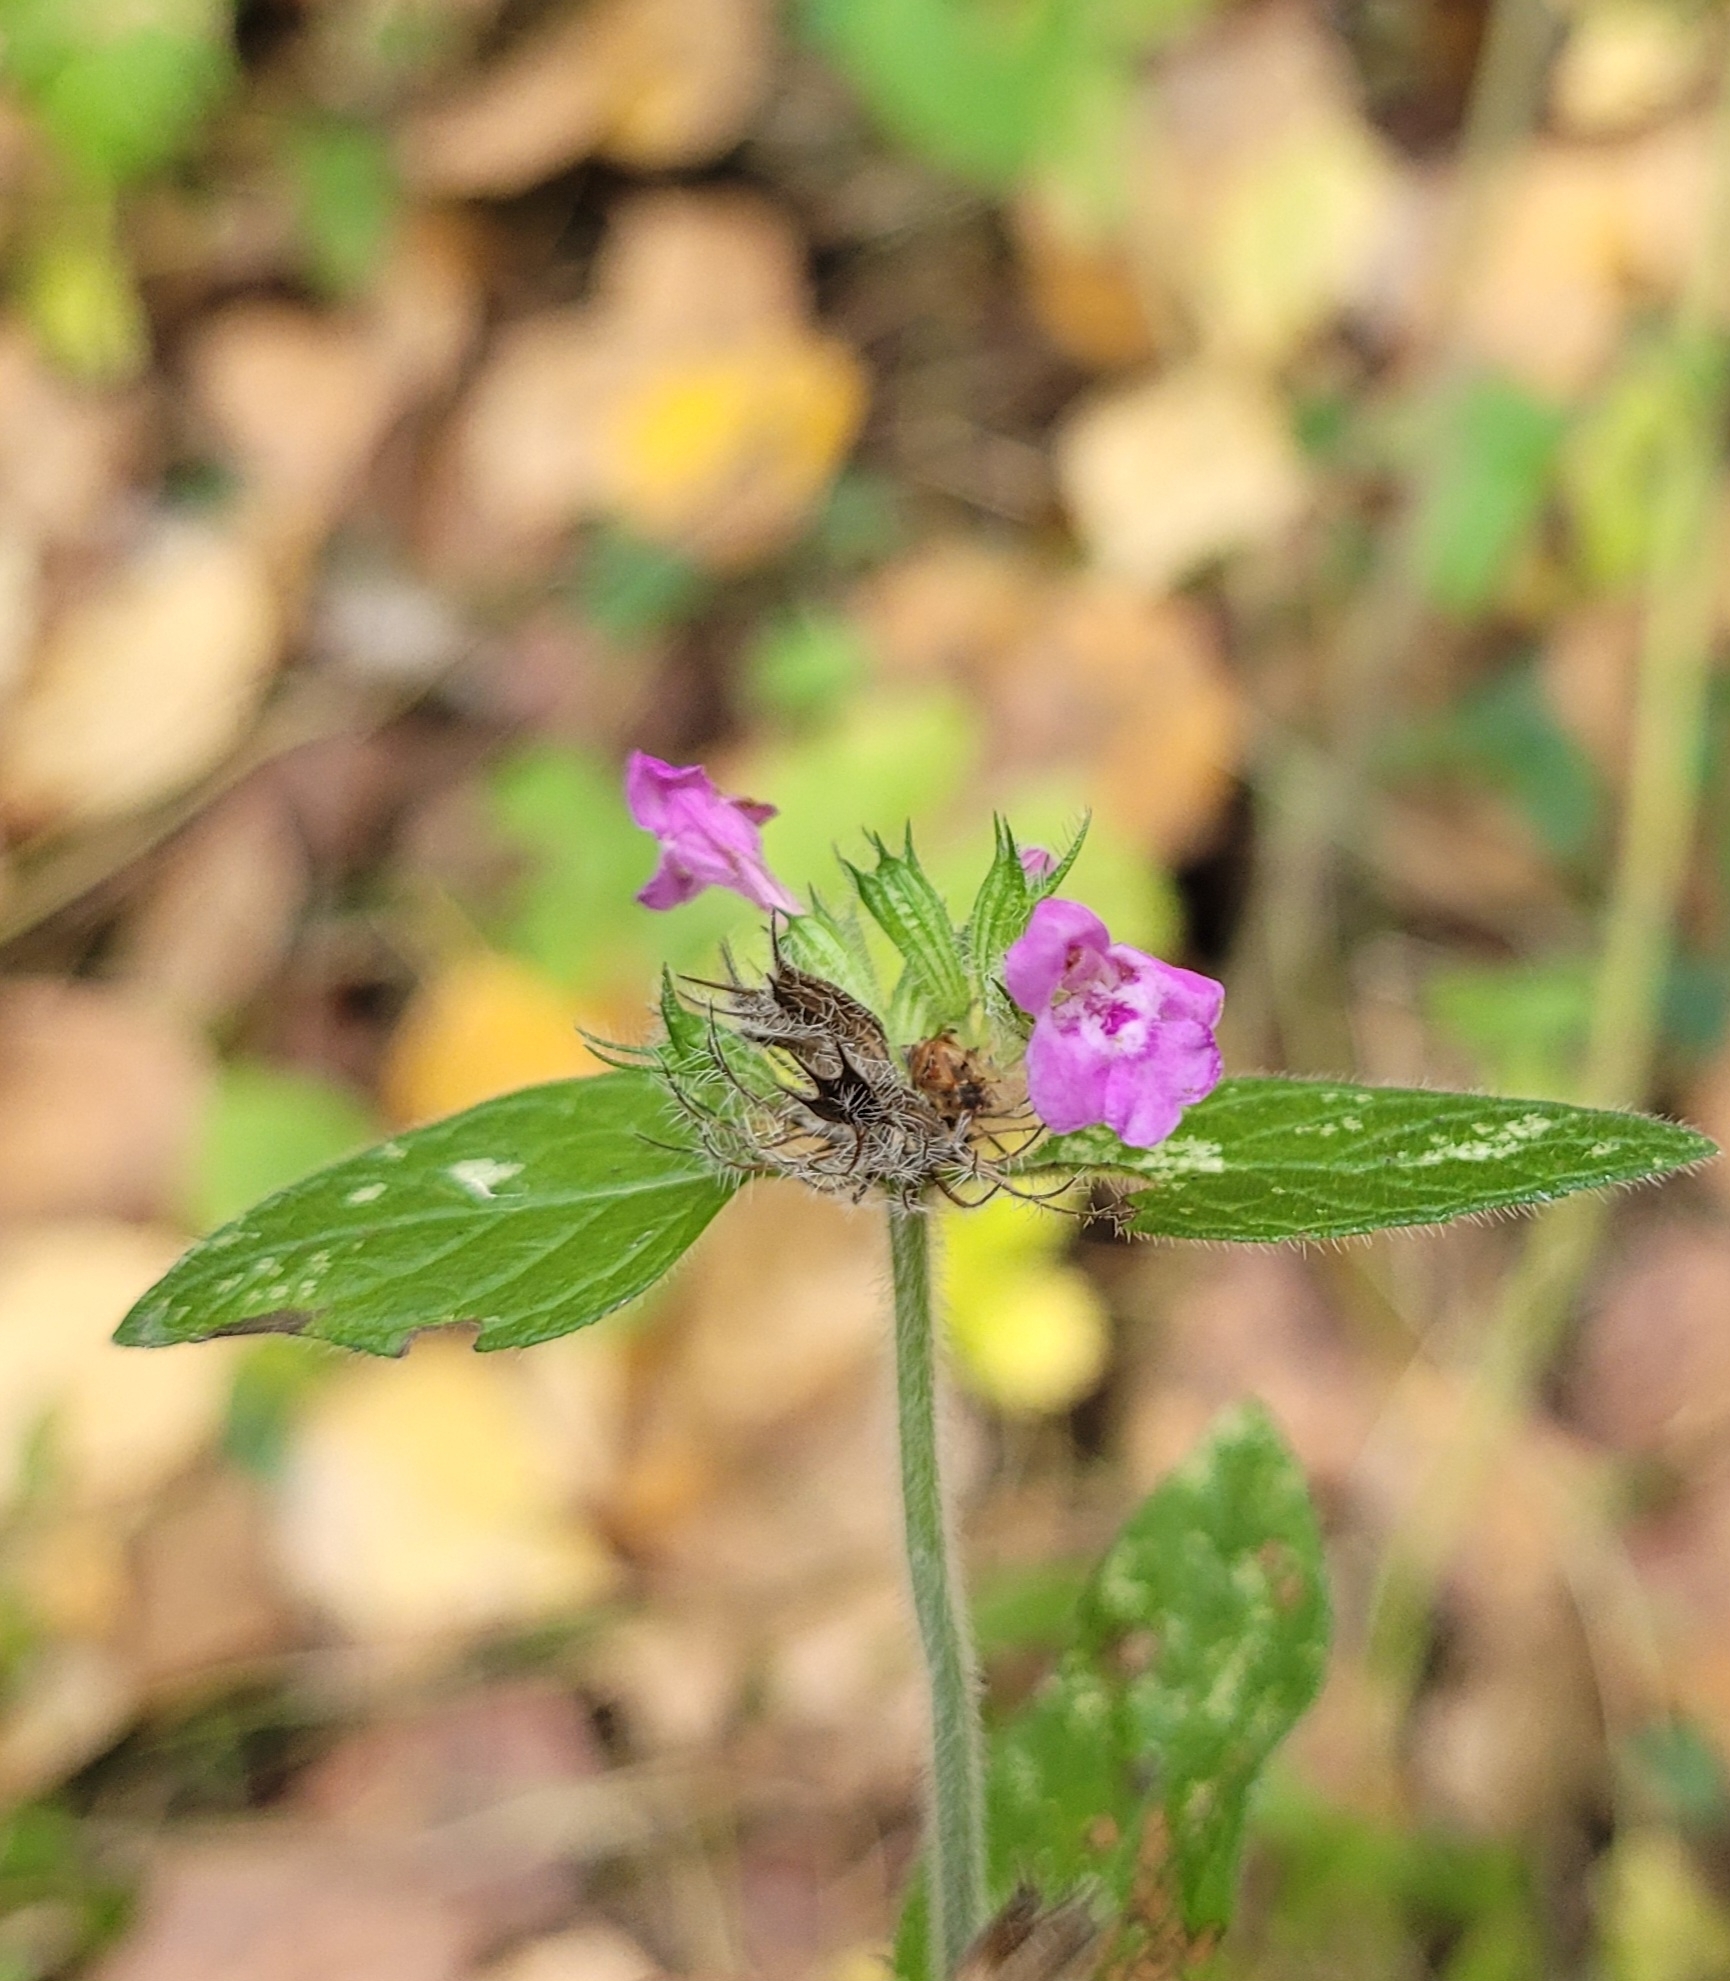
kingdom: Plantae
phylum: Tracheophyta
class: Magnoliopsida
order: Lamiales
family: Lamiaceae
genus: Clinopodium
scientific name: Clinopodium vulgare
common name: Wild basil
